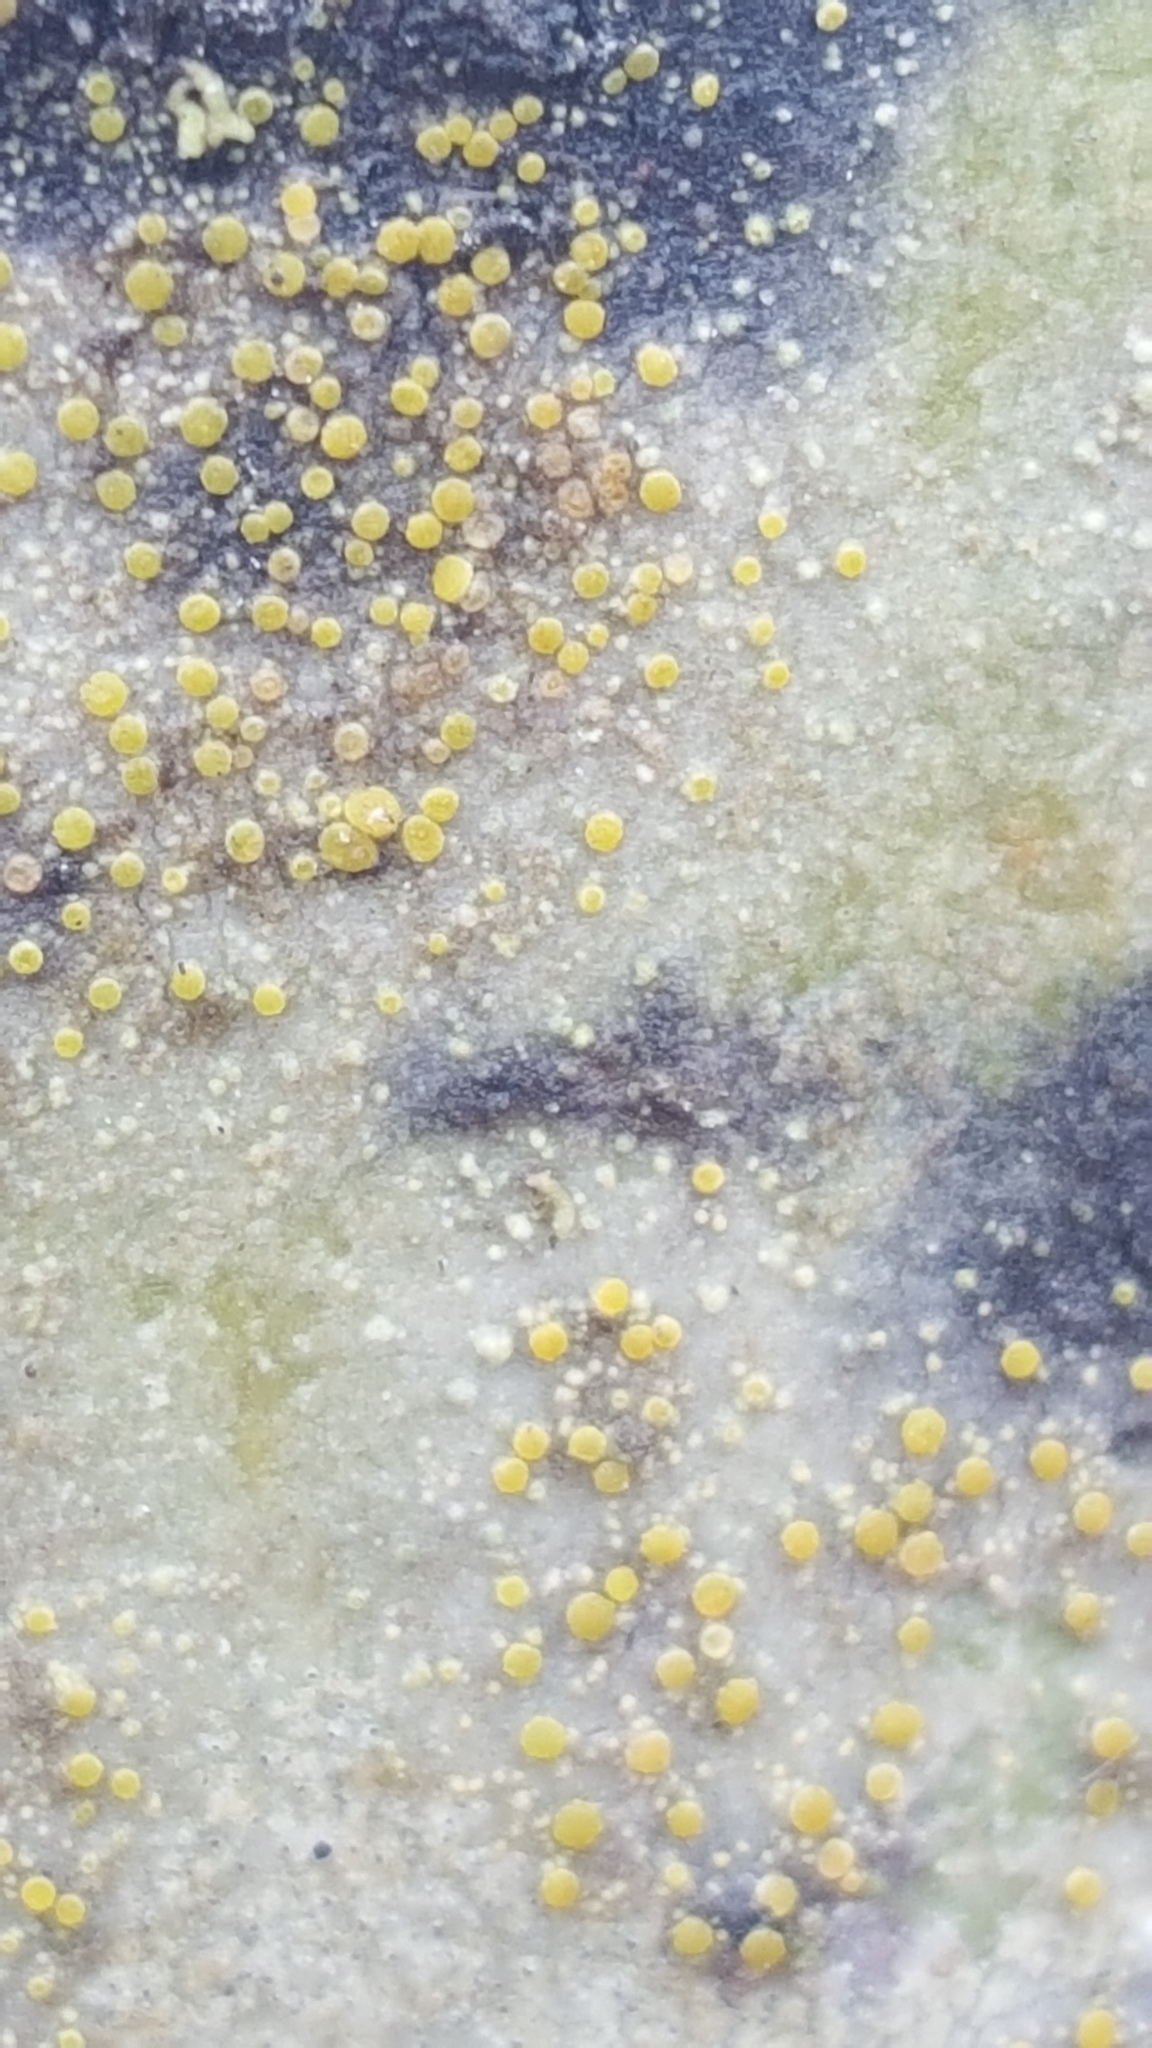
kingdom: Fungi
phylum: Ascomycota
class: Lecanoromycetes
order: Teloschistales
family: Teloschistaceae
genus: Caloplaca
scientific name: Caloplaca ahtii
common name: Boreal tree firedot
